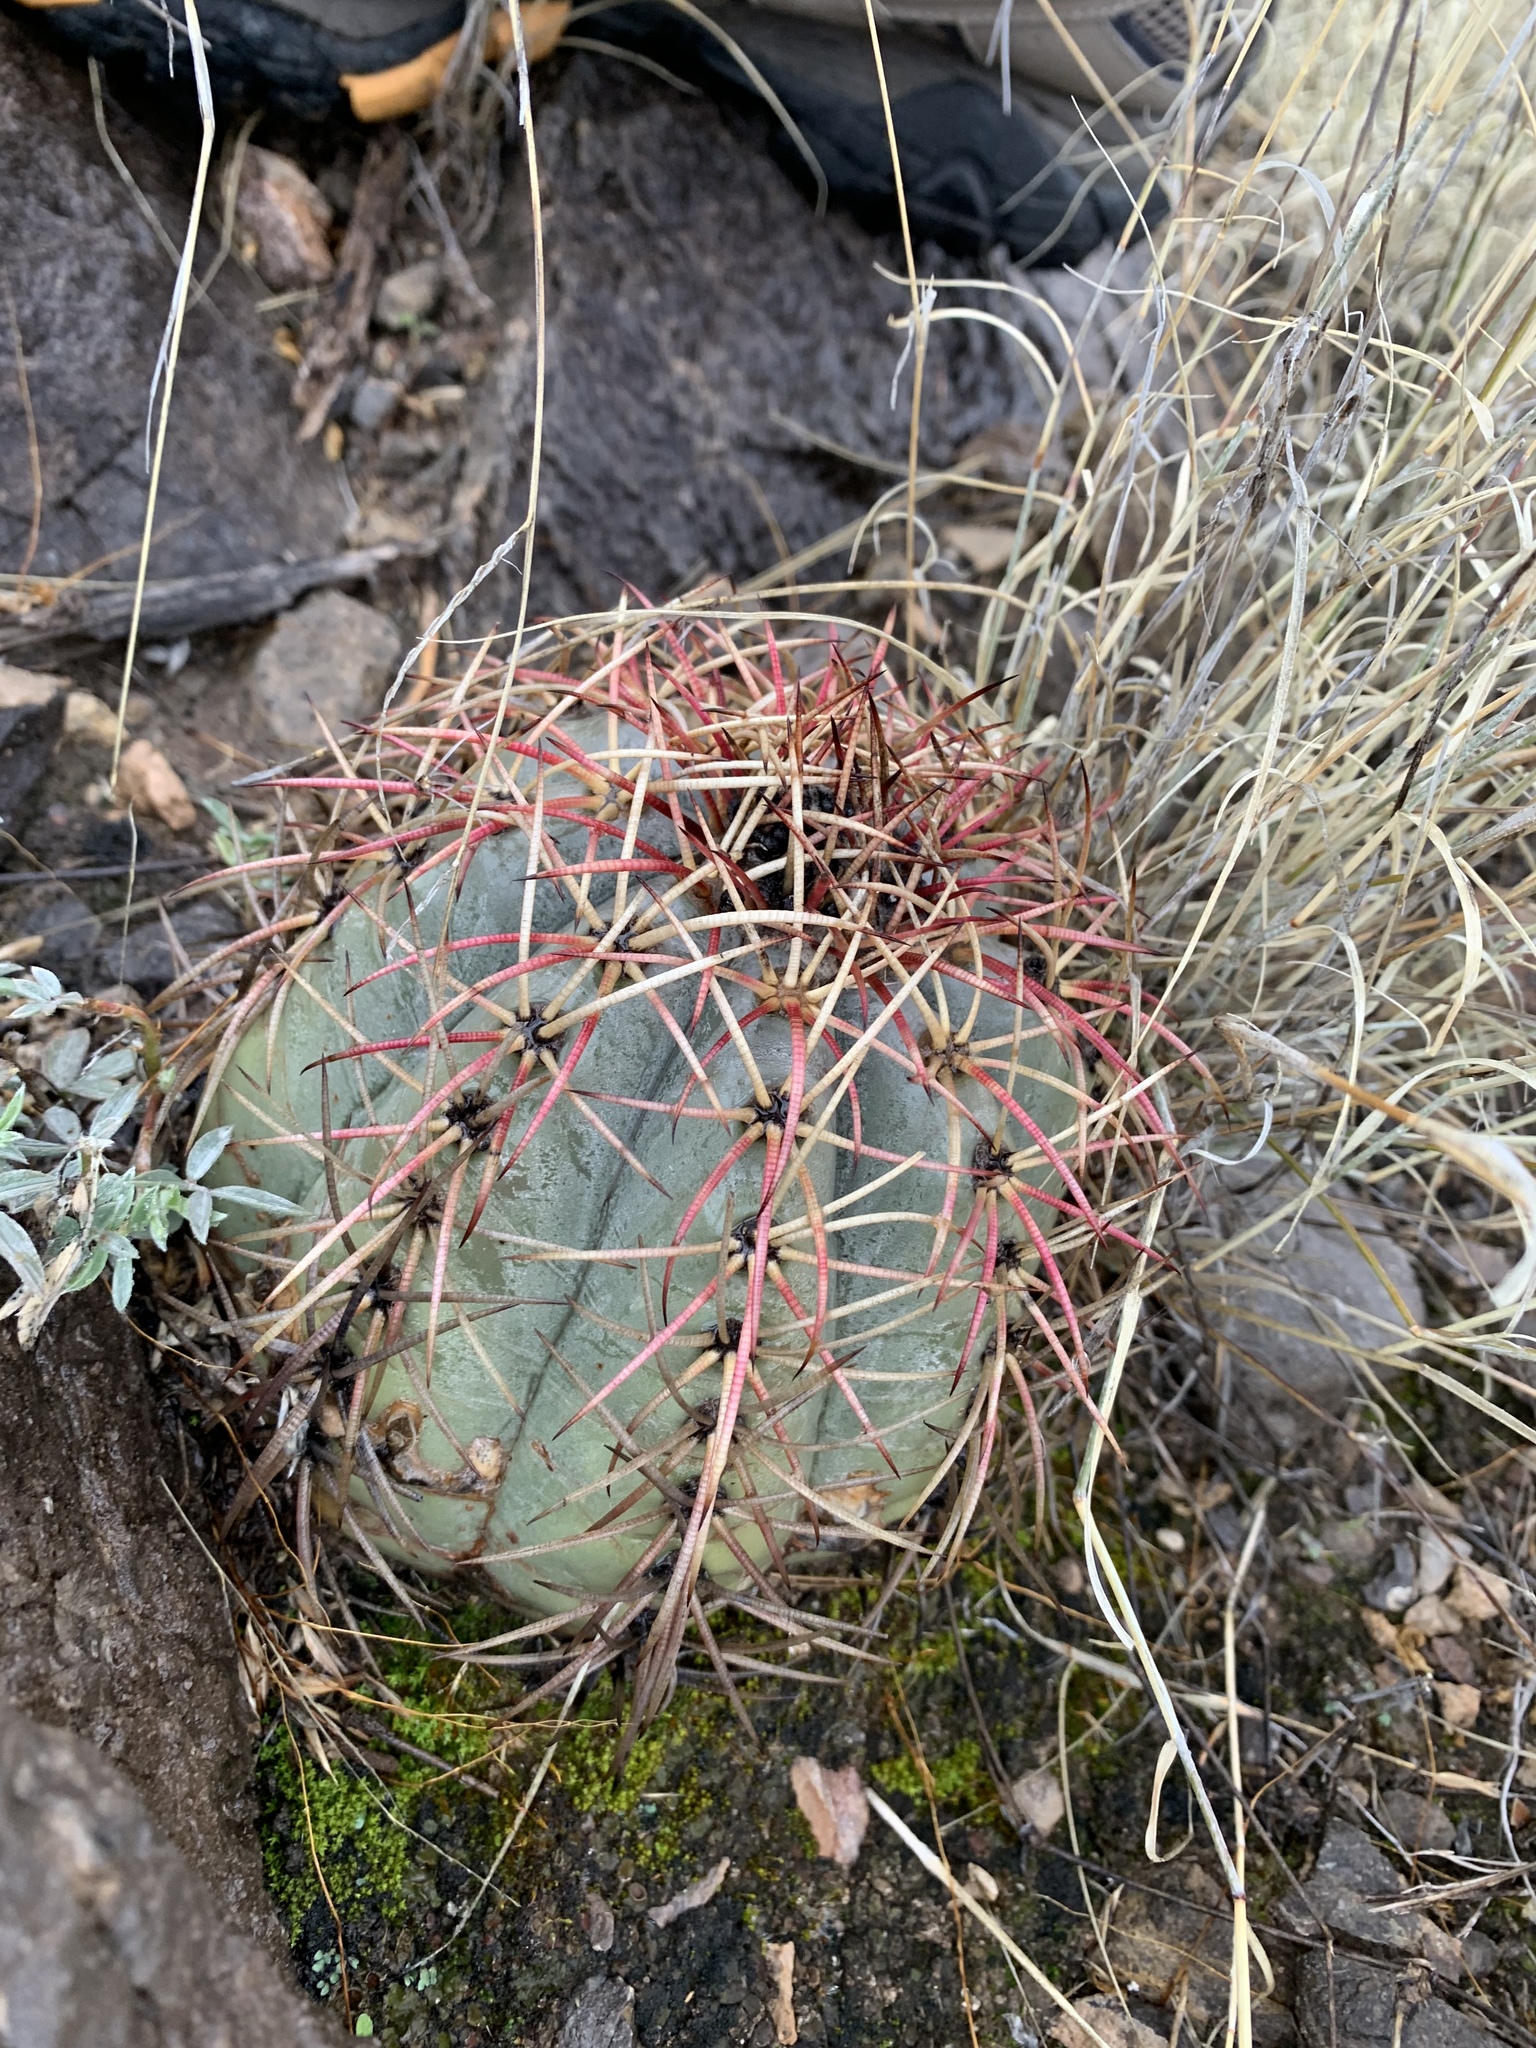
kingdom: Plantae
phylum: Tracheophyta
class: Magnoliopsida
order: Caryophyllales
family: Cactaceae
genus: Echinocactus
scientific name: Echinocactus horizonthalonius
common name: Devilshead
